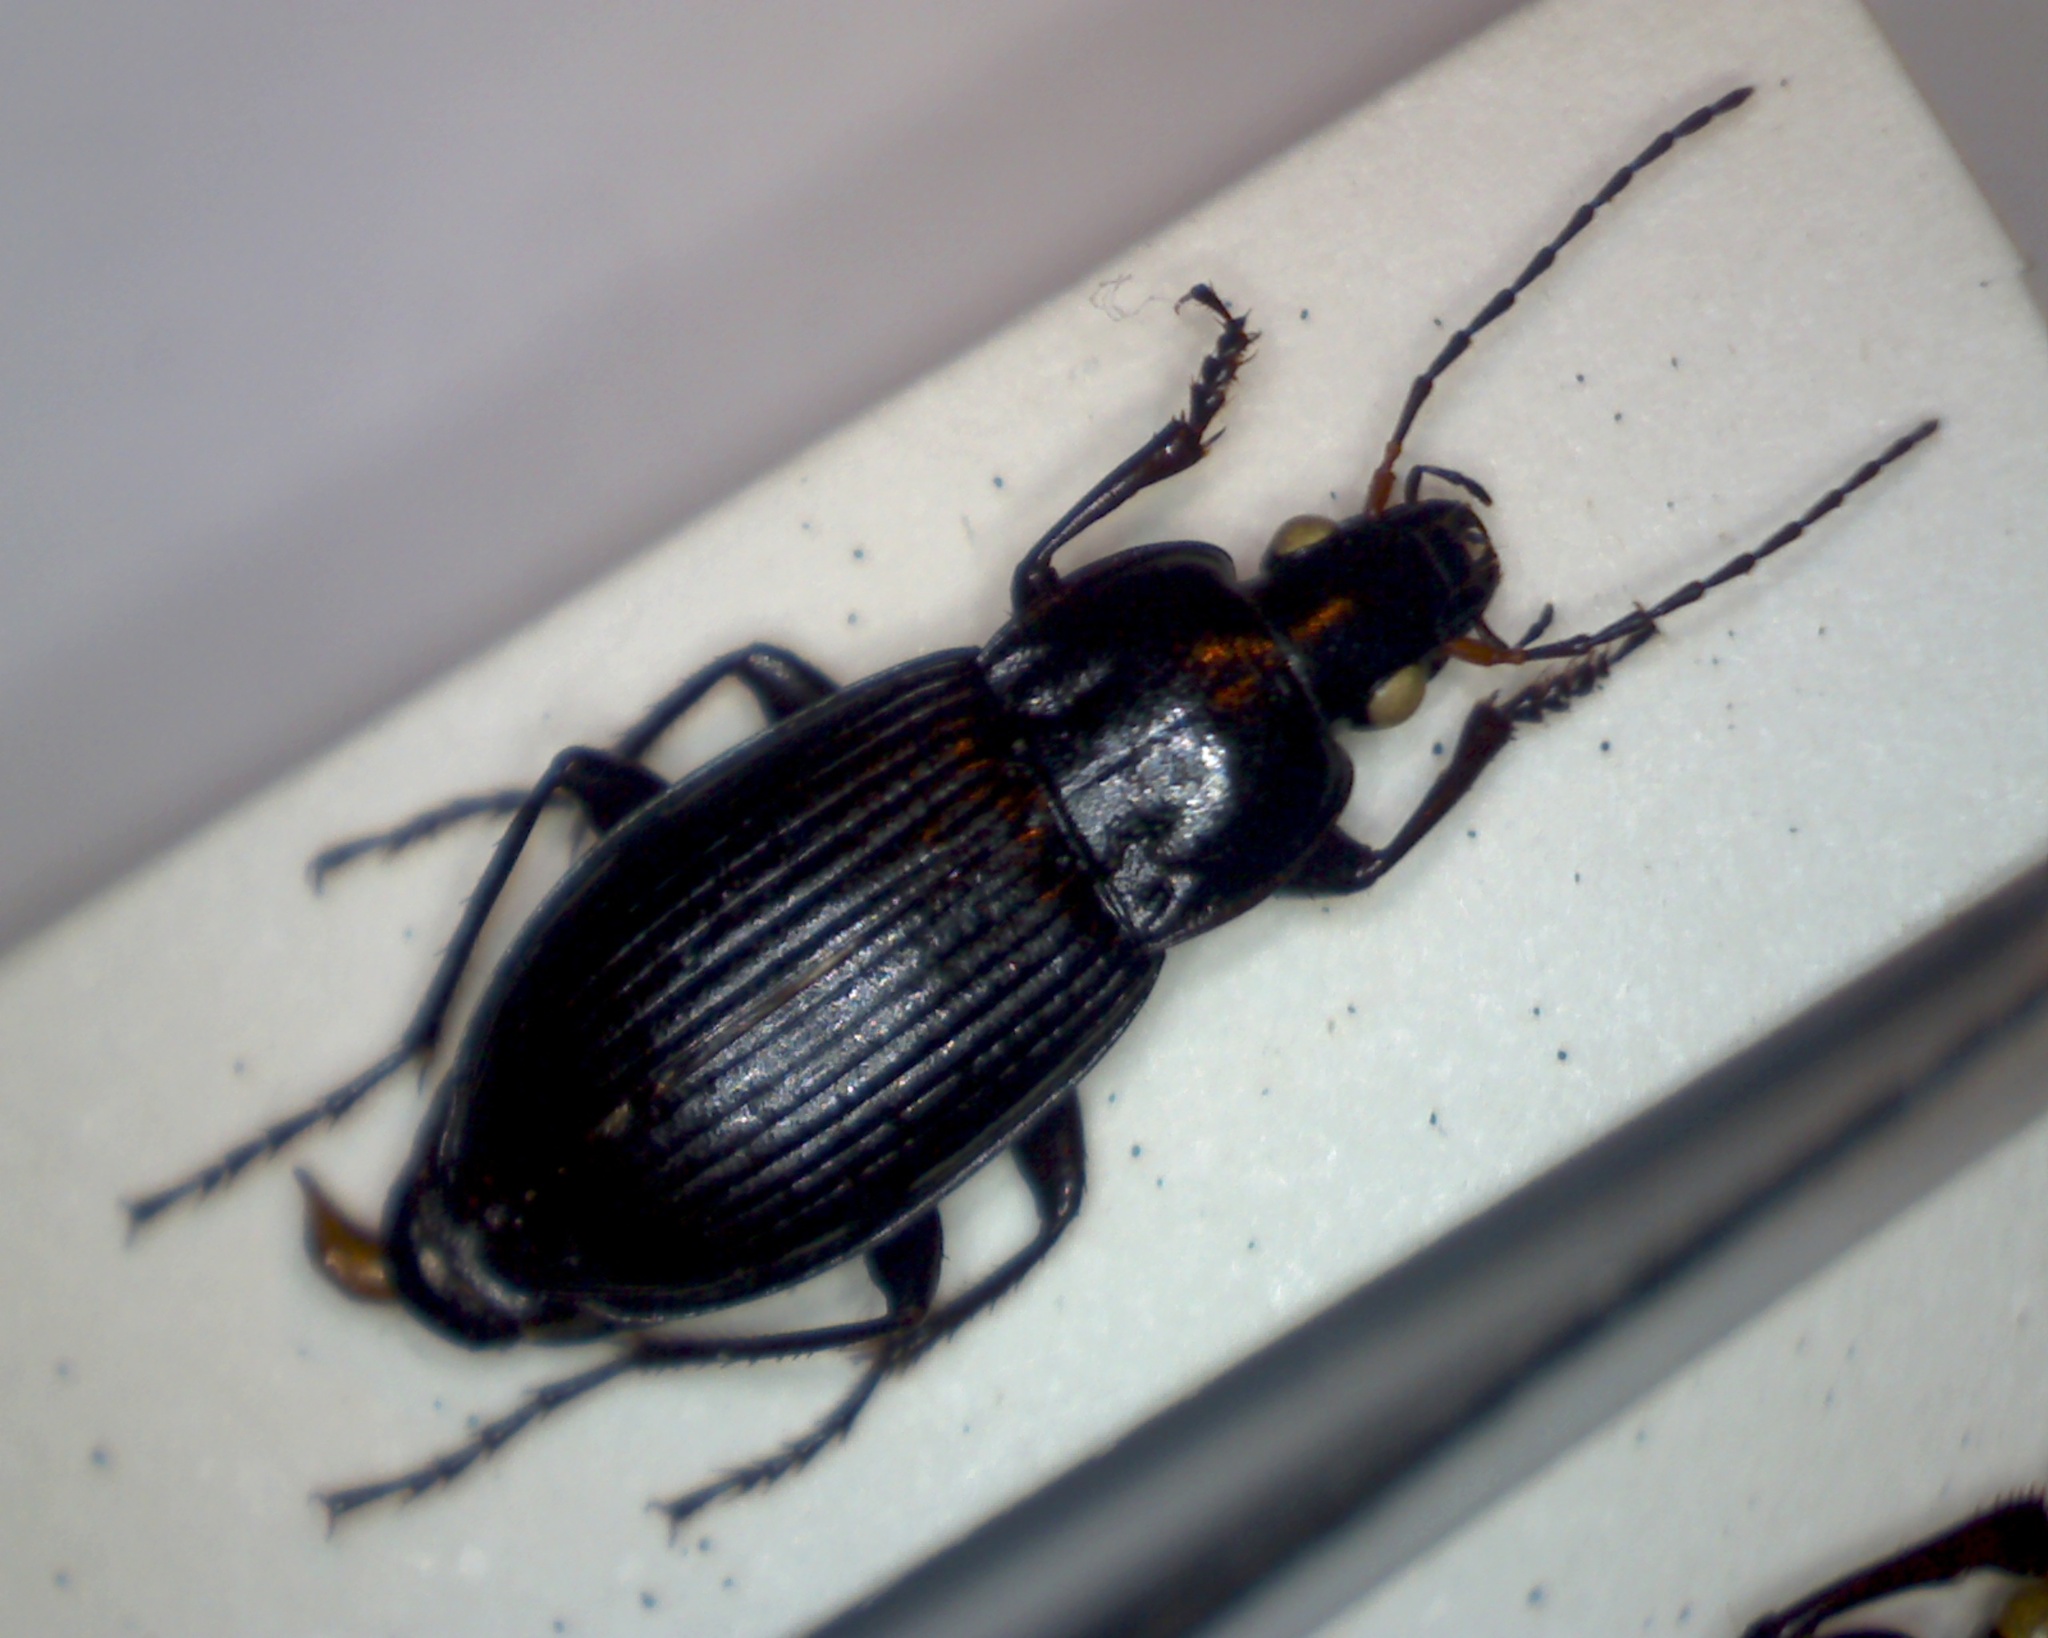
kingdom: Animalia
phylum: Arthropoda
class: Insecta
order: Coleoptera
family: Carabidae
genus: Poecilus
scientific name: Poecilus cupreus
